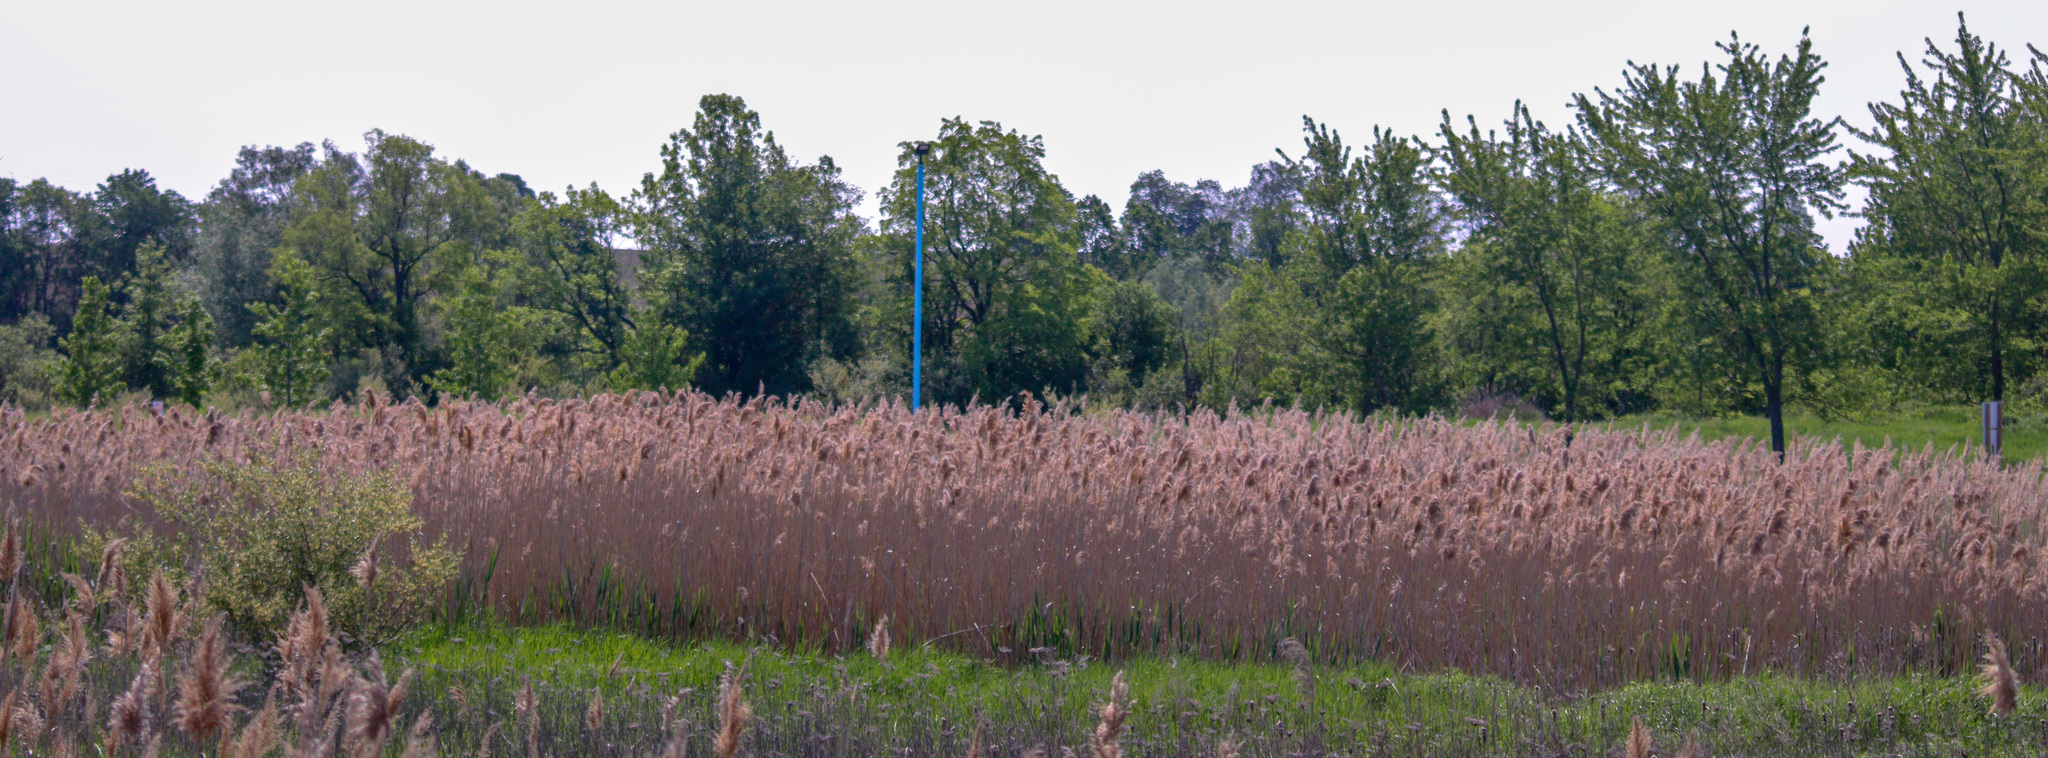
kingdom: Plantae
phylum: Tracheophyta
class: Liliopsida
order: Poales
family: Poaceae
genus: Phragmites
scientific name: Phragmites australis
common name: Common reed
